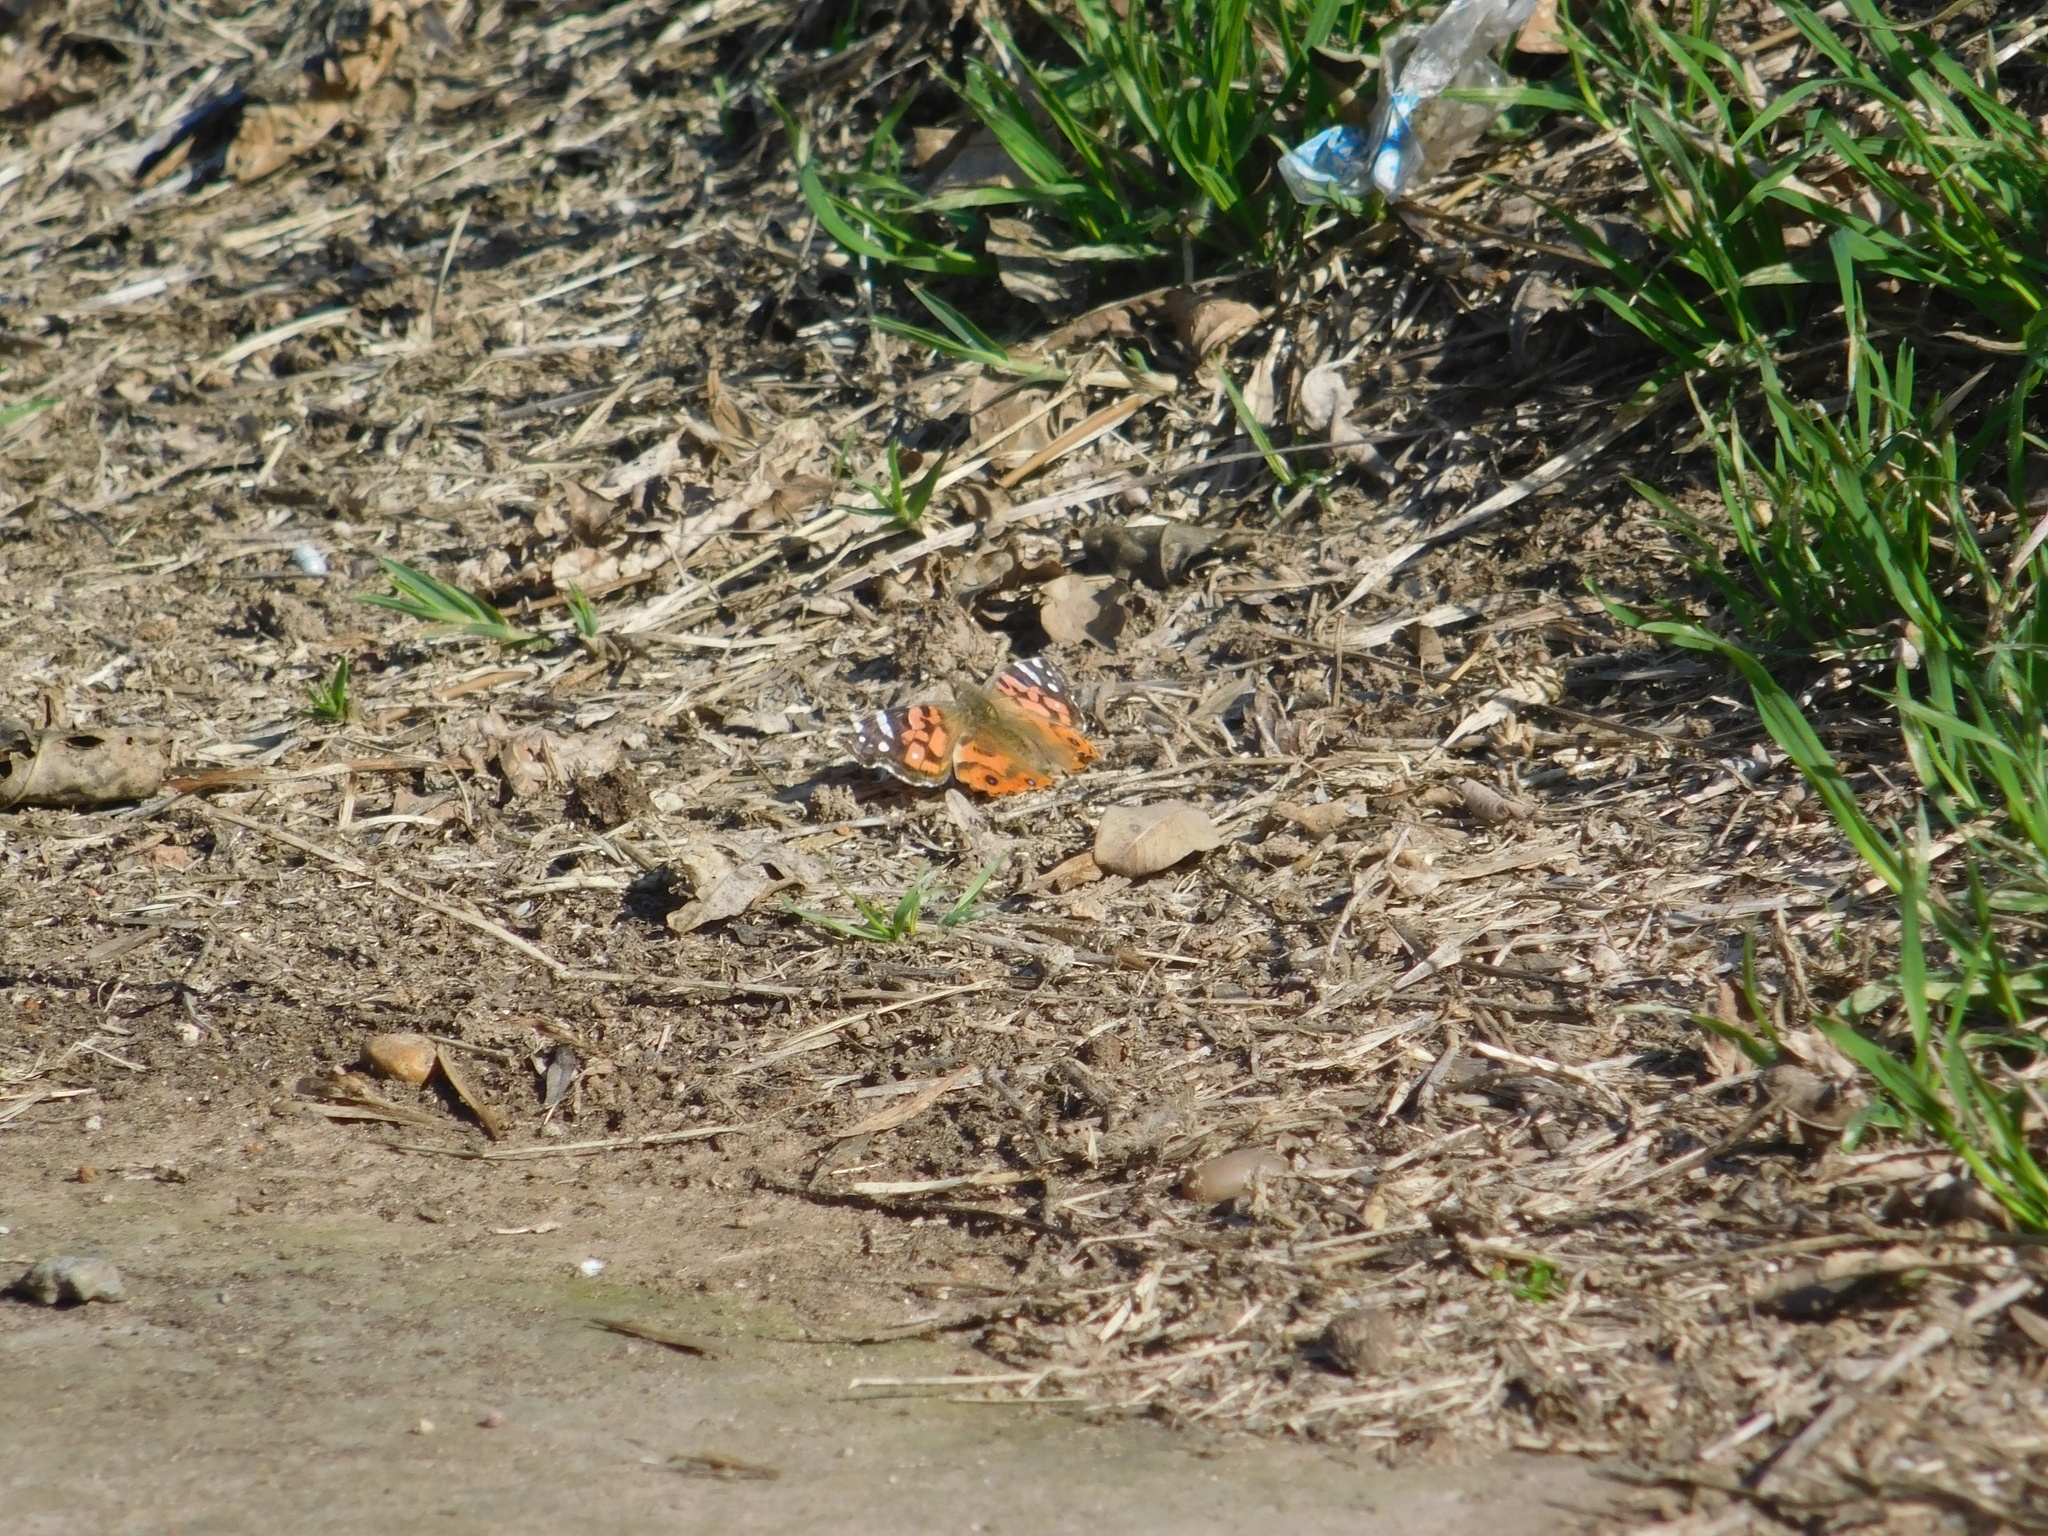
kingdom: Animalia
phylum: Arthropoda
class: Insecta
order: Lepidoptera
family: Nymphalidae
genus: Vanessa
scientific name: Vanessa braziliensis
